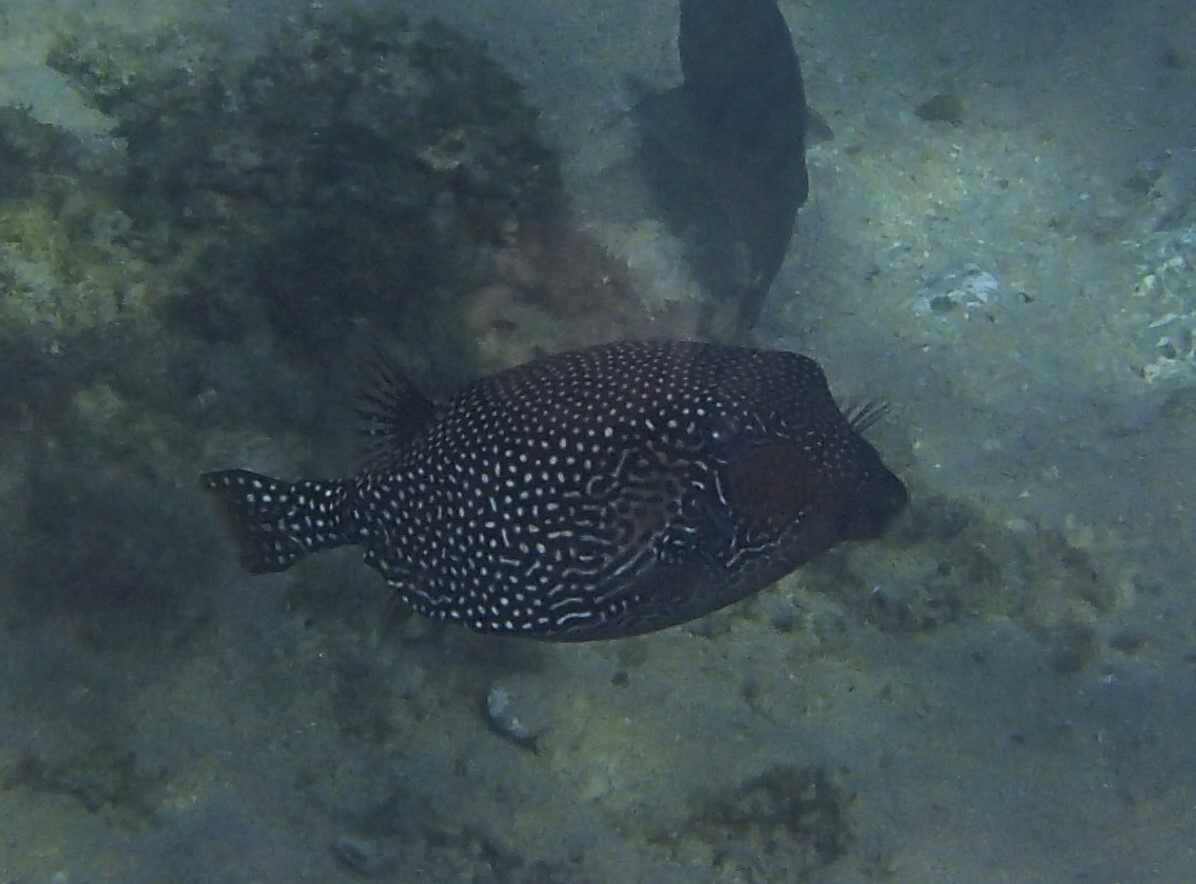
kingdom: Animalia
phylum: Chordata
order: Tetraodontiformes
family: Ostraciidae
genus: Ostracion
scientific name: Ostracion meleagris
